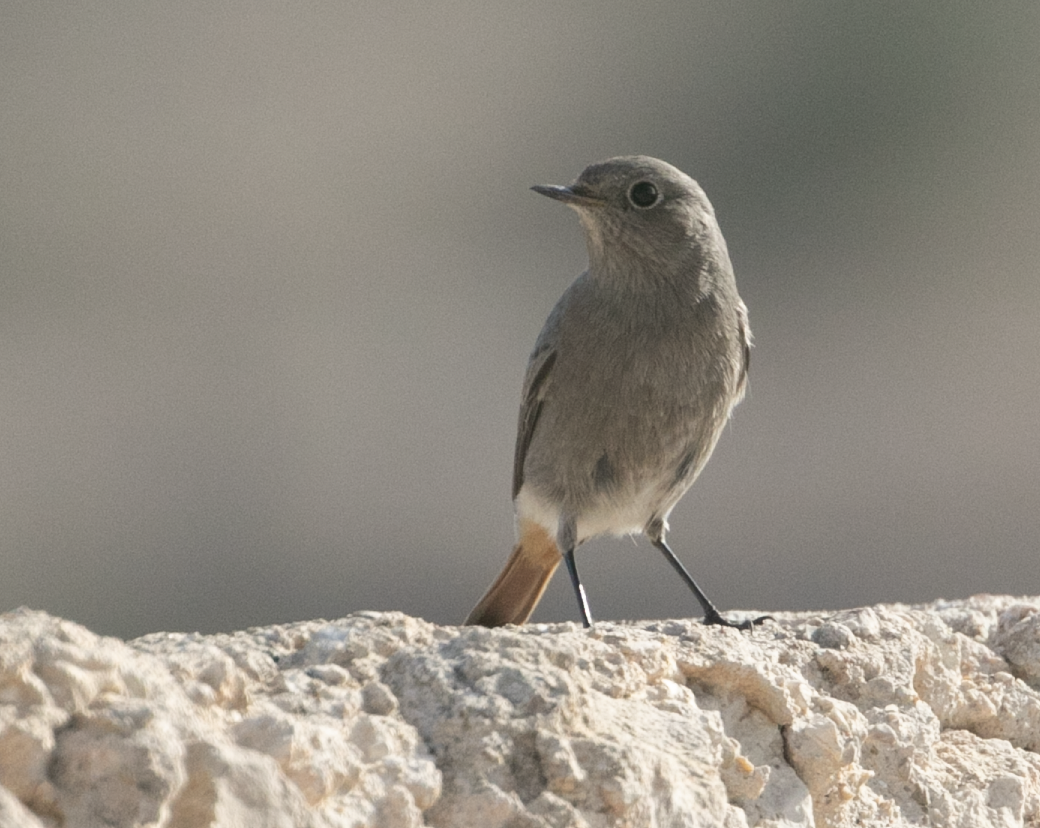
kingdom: Animalia
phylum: Chordata
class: Aves
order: Passeriformes
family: Muscicapidae
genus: Phoenicurus
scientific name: Phoenicurus ochruros
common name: Black redstart
